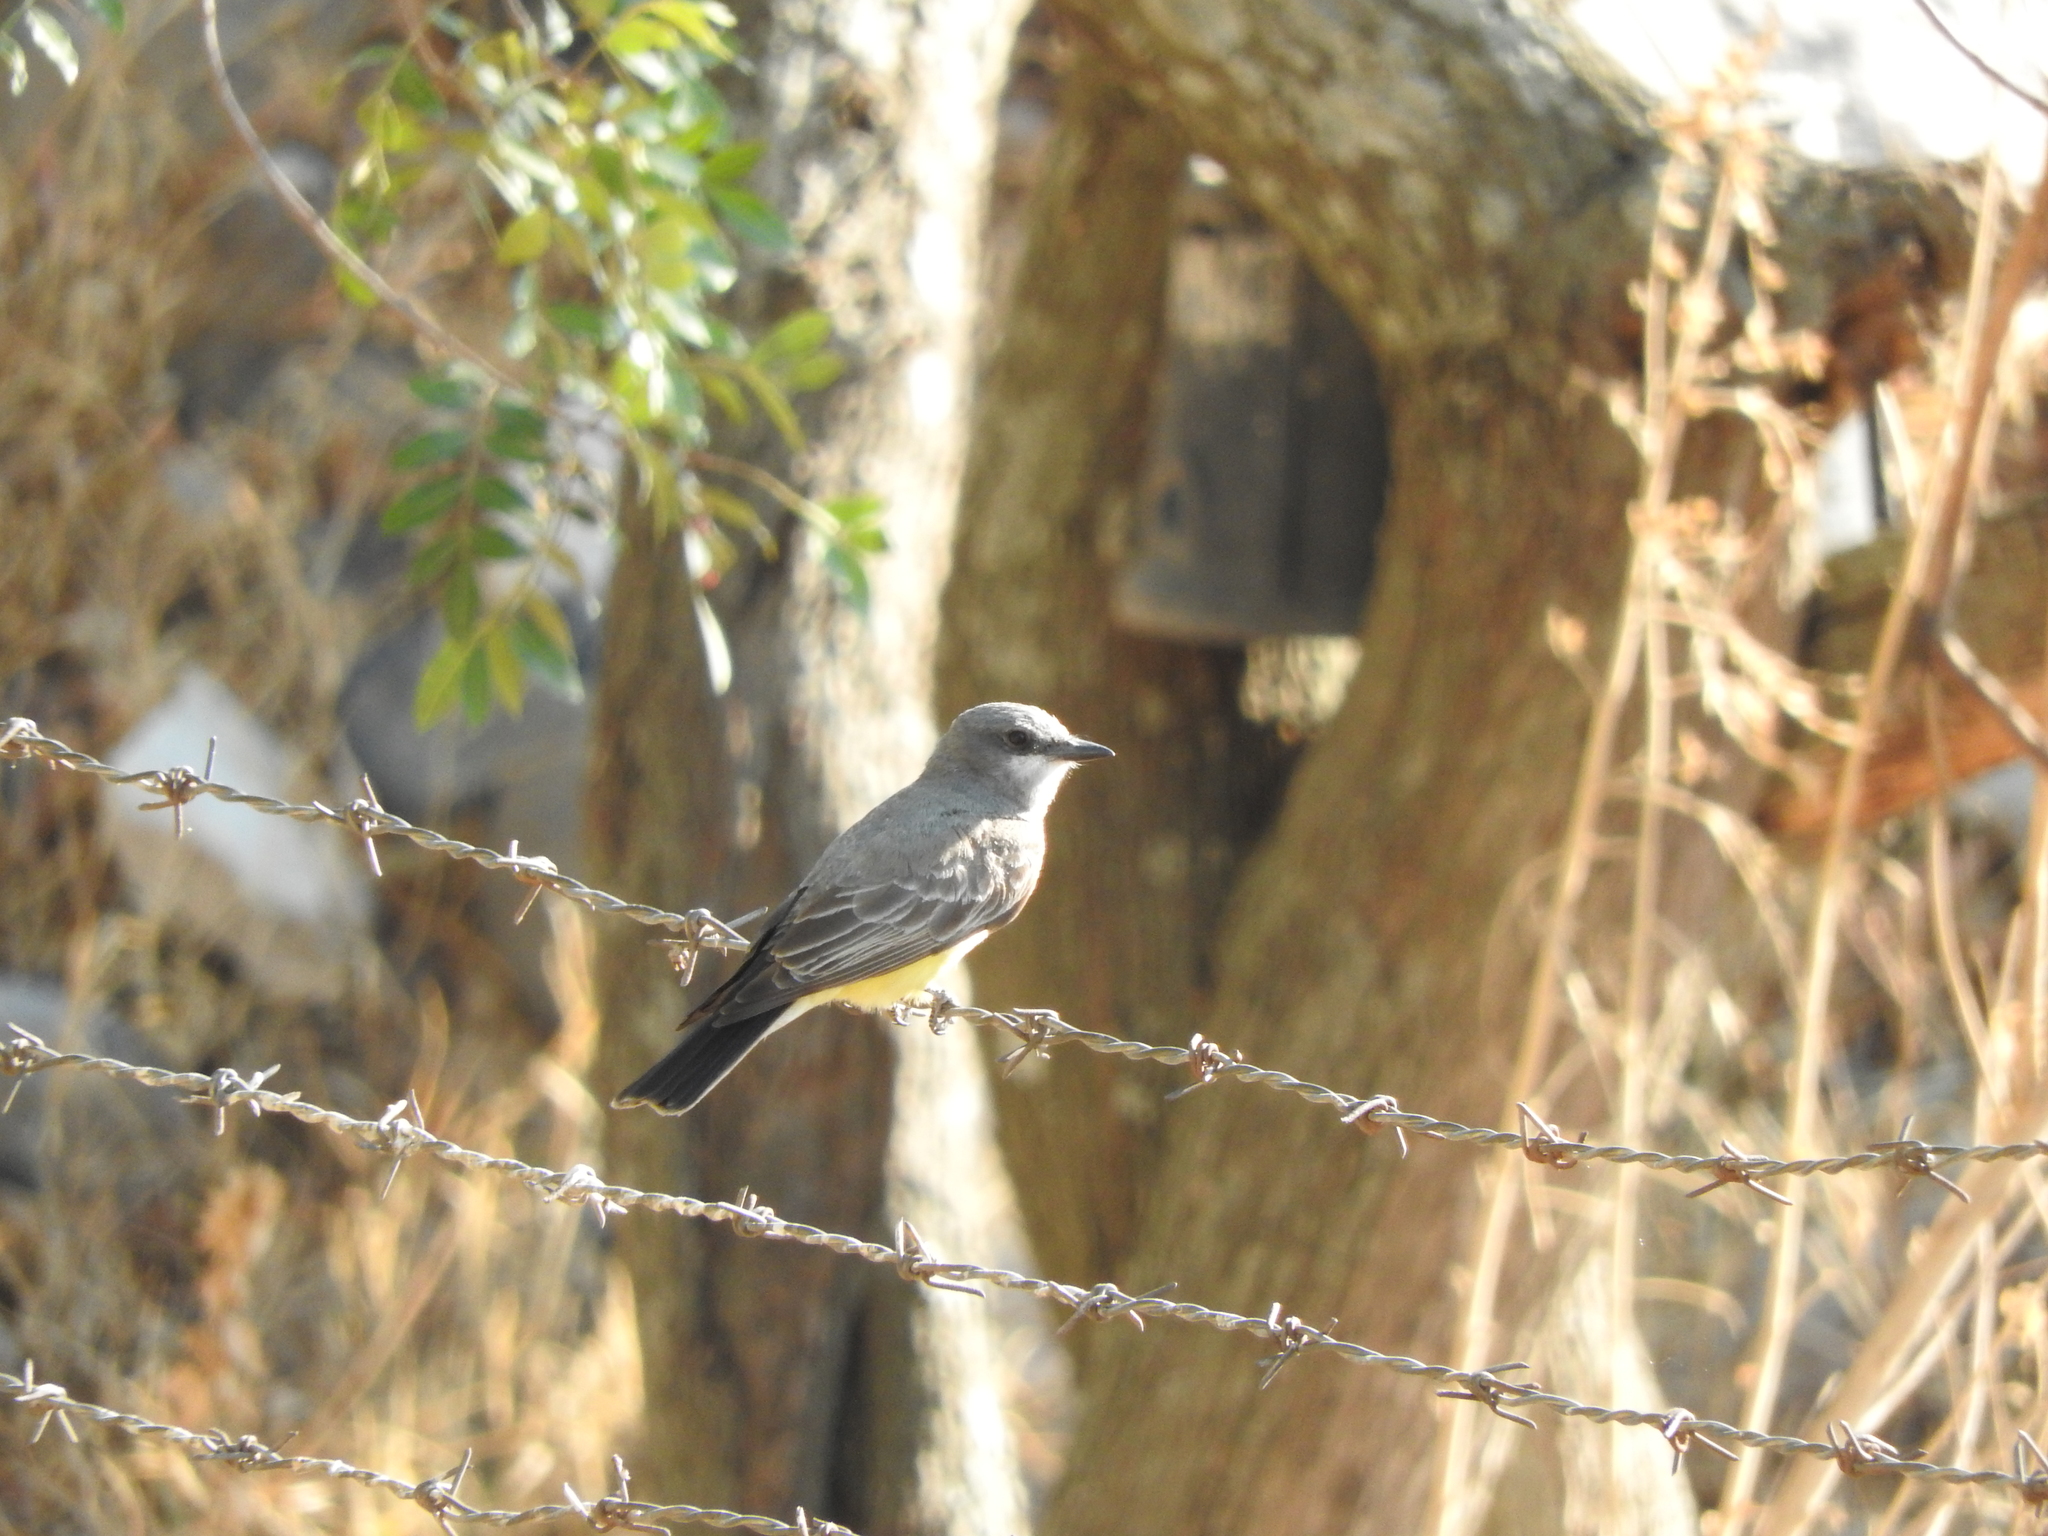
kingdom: Animalia
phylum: Chordata
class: Aves
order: Passeriformes
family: Tyrannidae
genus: Tyrannus
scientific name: Tyrannus vociferans
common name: Cassin's kingbird
